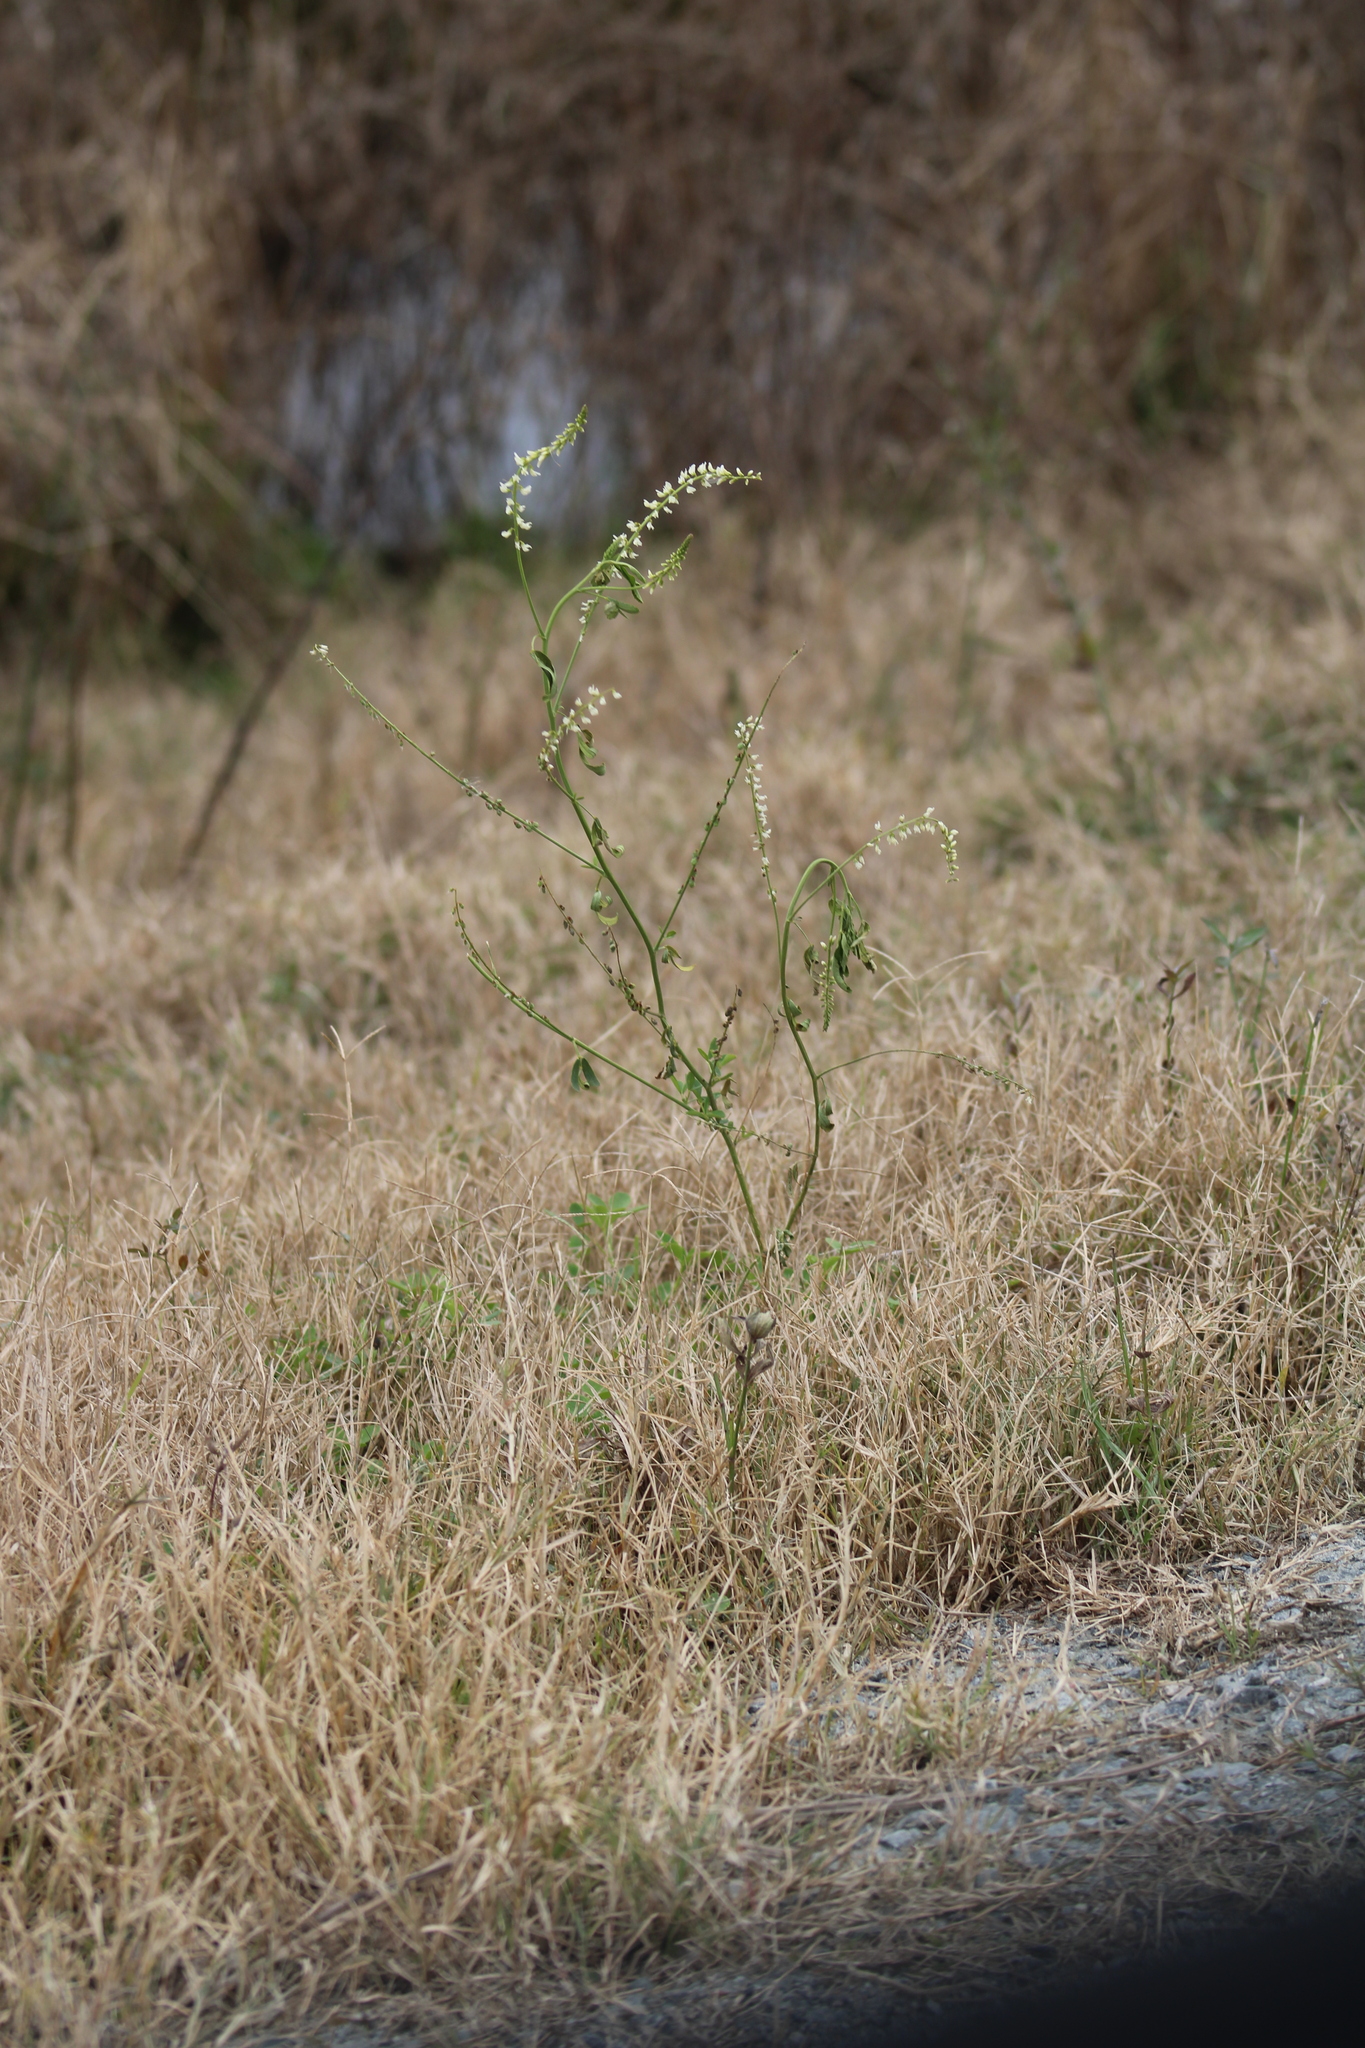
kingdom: Plantae
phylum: Tracheophyta
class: Magnoliopsida
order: Fabales
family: Fabaceae
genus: Melilotus
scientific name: Melilotus albus
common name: White melilot
